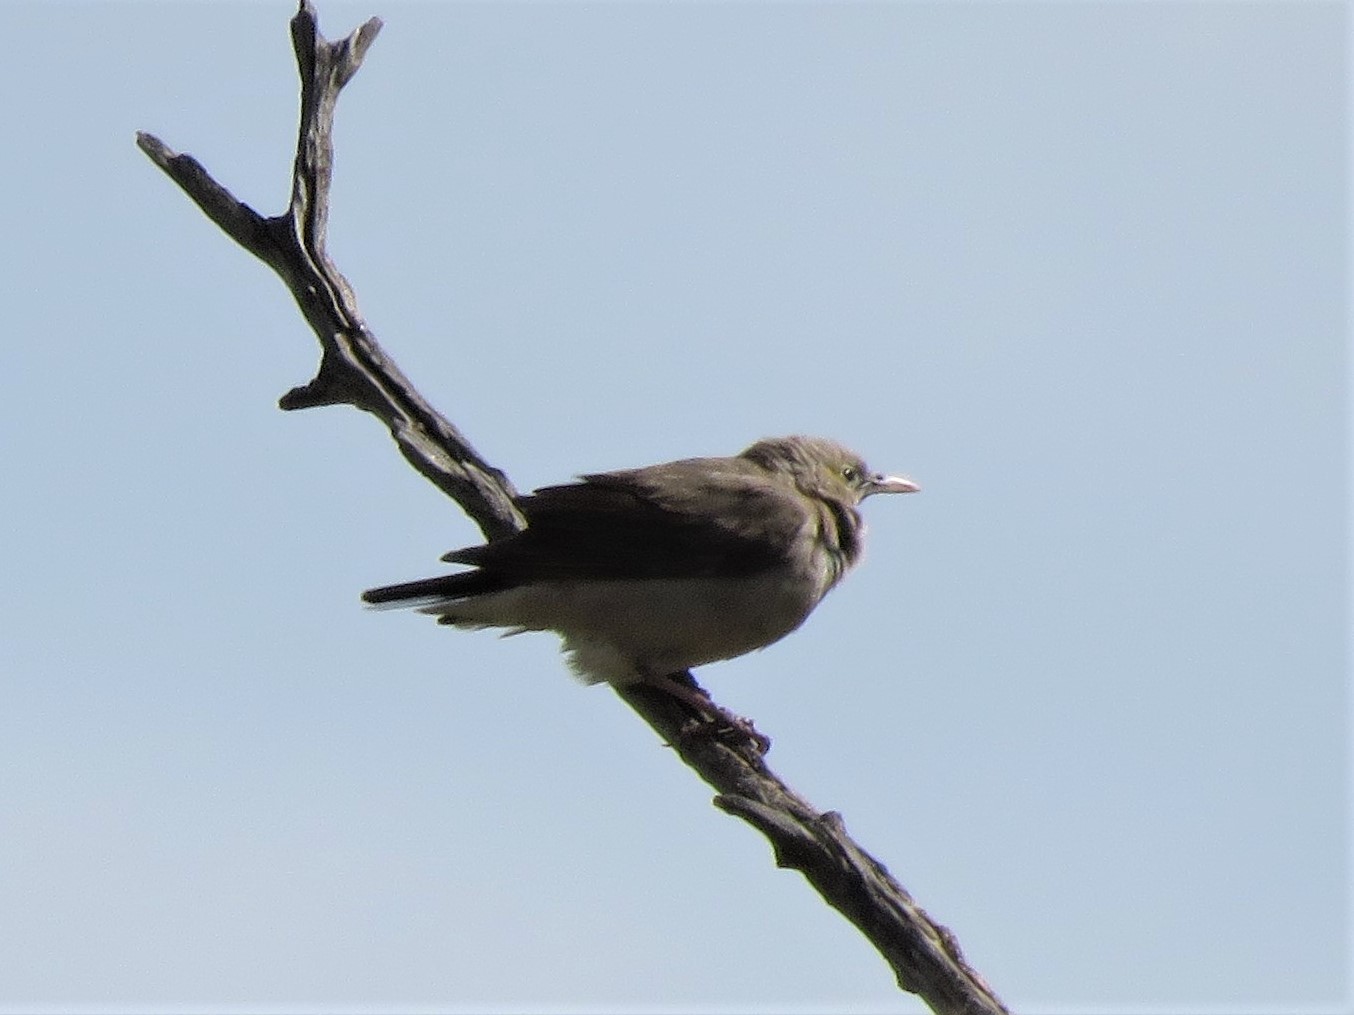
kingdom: Animalia
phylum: Chordata
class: Aves
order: Passeriformes
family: Sturnidae
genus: Creatophora
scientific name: Creatophora cinerea
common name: Wattled starling
